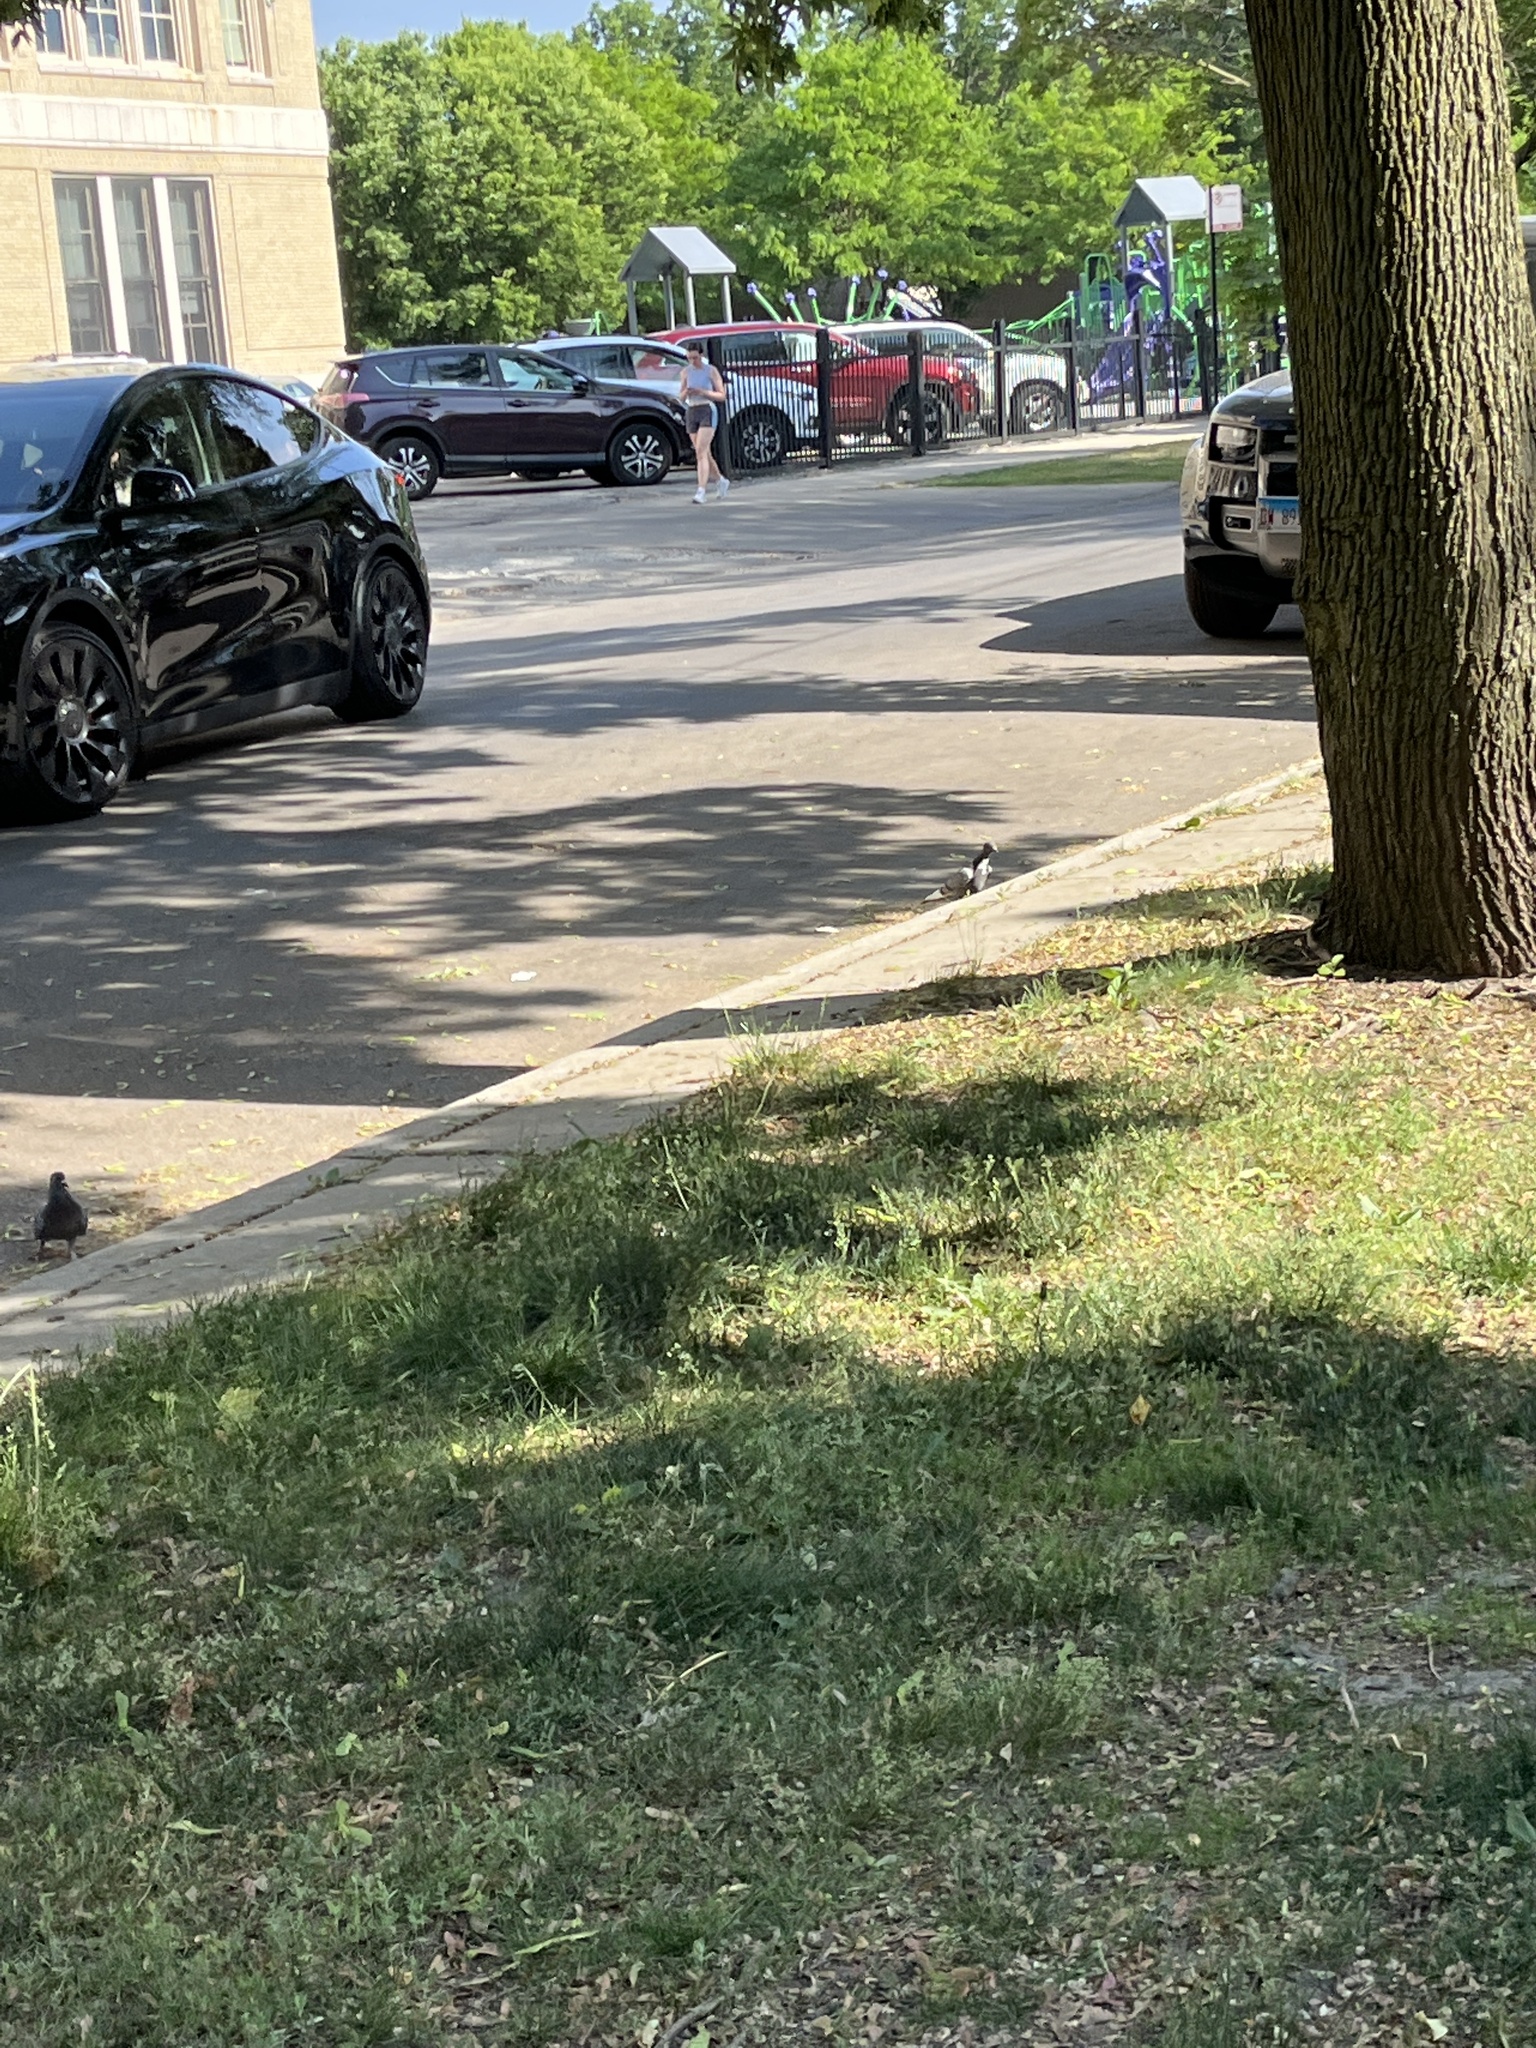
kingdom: Animalia
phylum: Chordata
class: Aves
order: Columbiformes
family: Columbidae
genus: Columba
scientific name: Columba livia
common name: Rock pigeon
